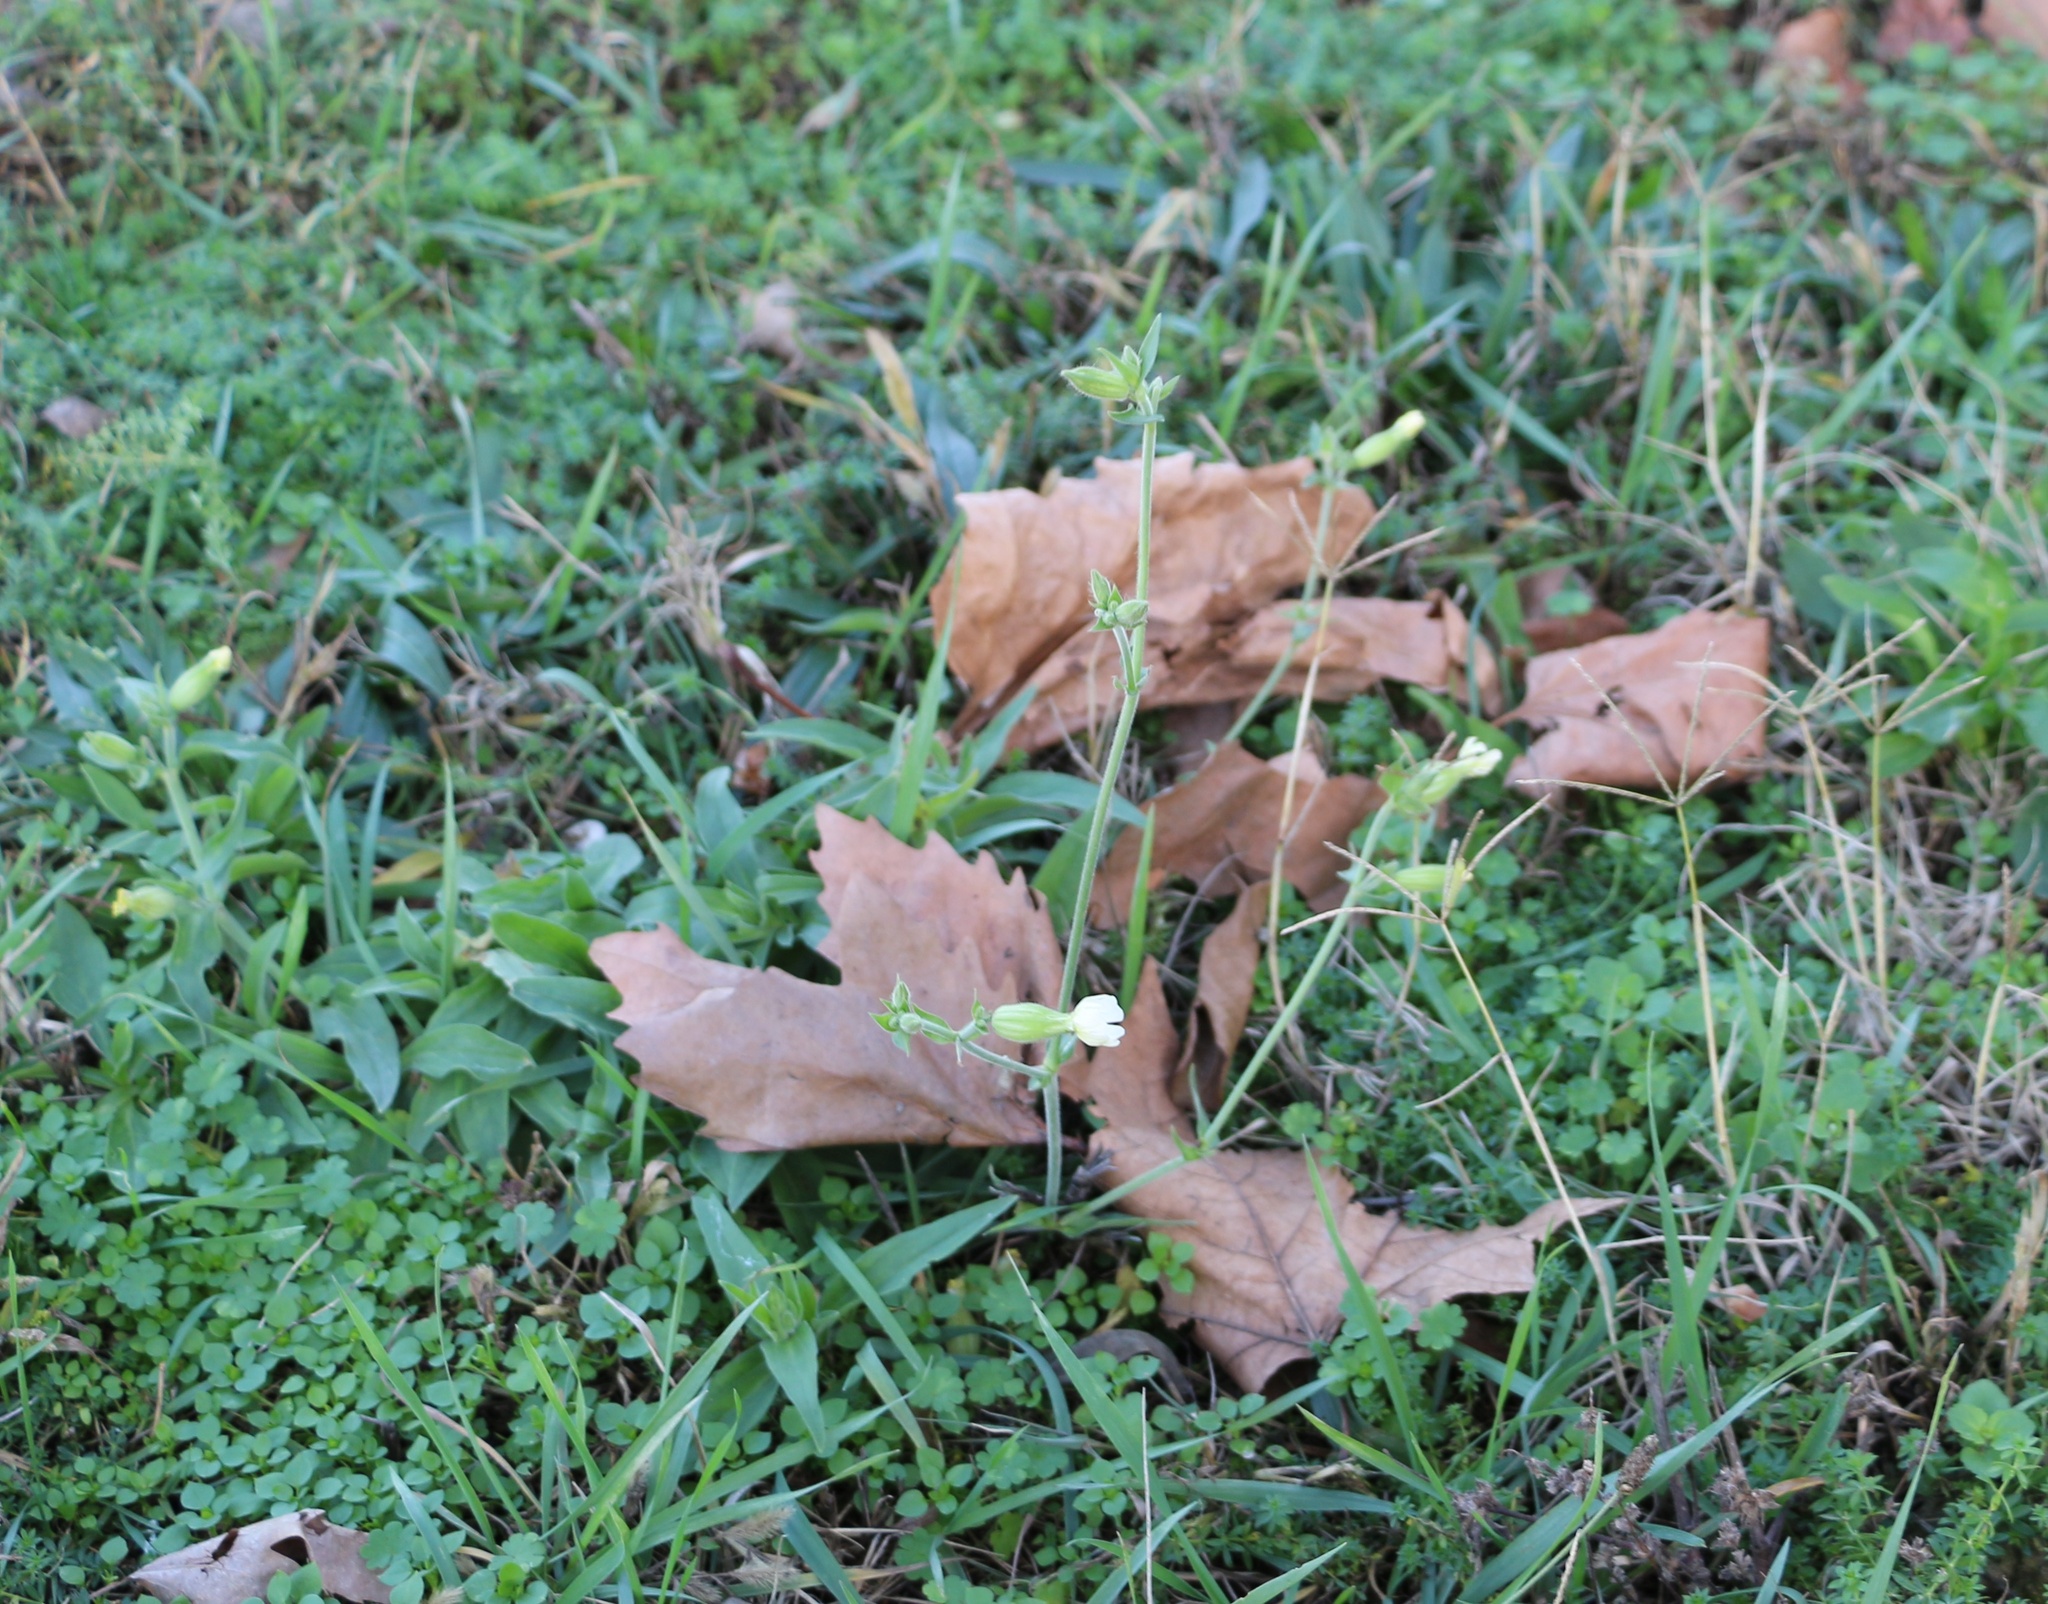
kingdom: Plantae
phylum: Tracheophyta
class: Magnoliopsida
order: Caryophyllales
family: Caryophyllaceae
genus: Silene
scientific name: Silene latifolia
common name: White campion
